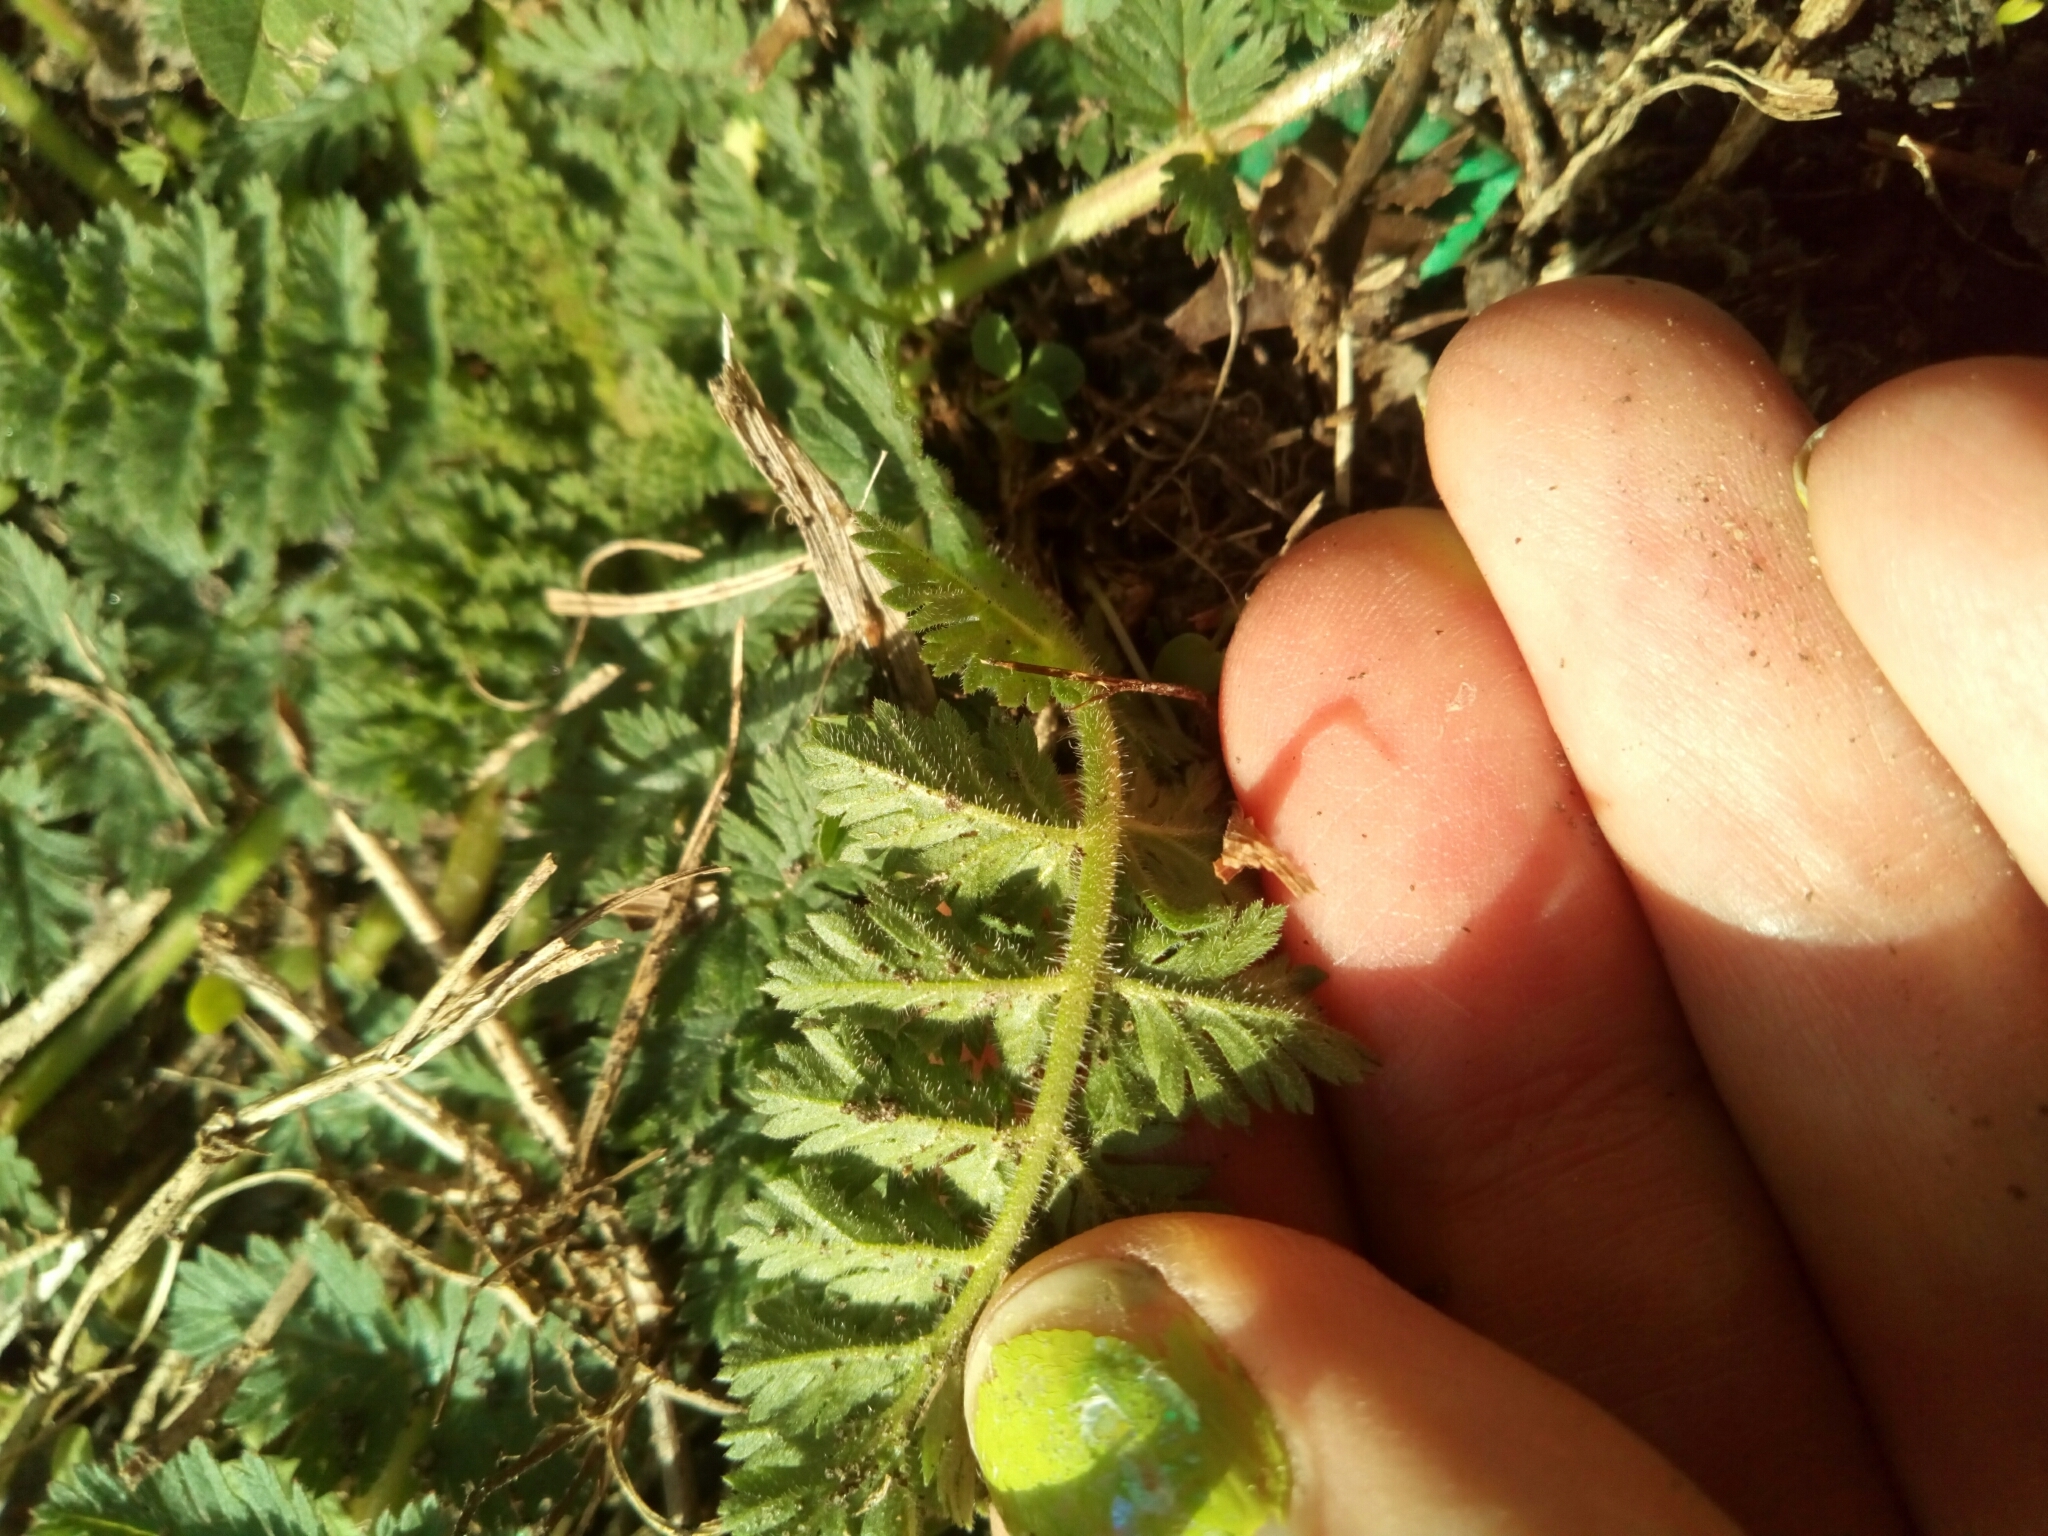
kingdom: Plantae
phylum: Tracheophyta
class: Magnoliopsida
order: Geraniales
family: Geraniaceae
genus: Erodium
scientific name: Erodium cicutarium
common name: Common stork's-bill
